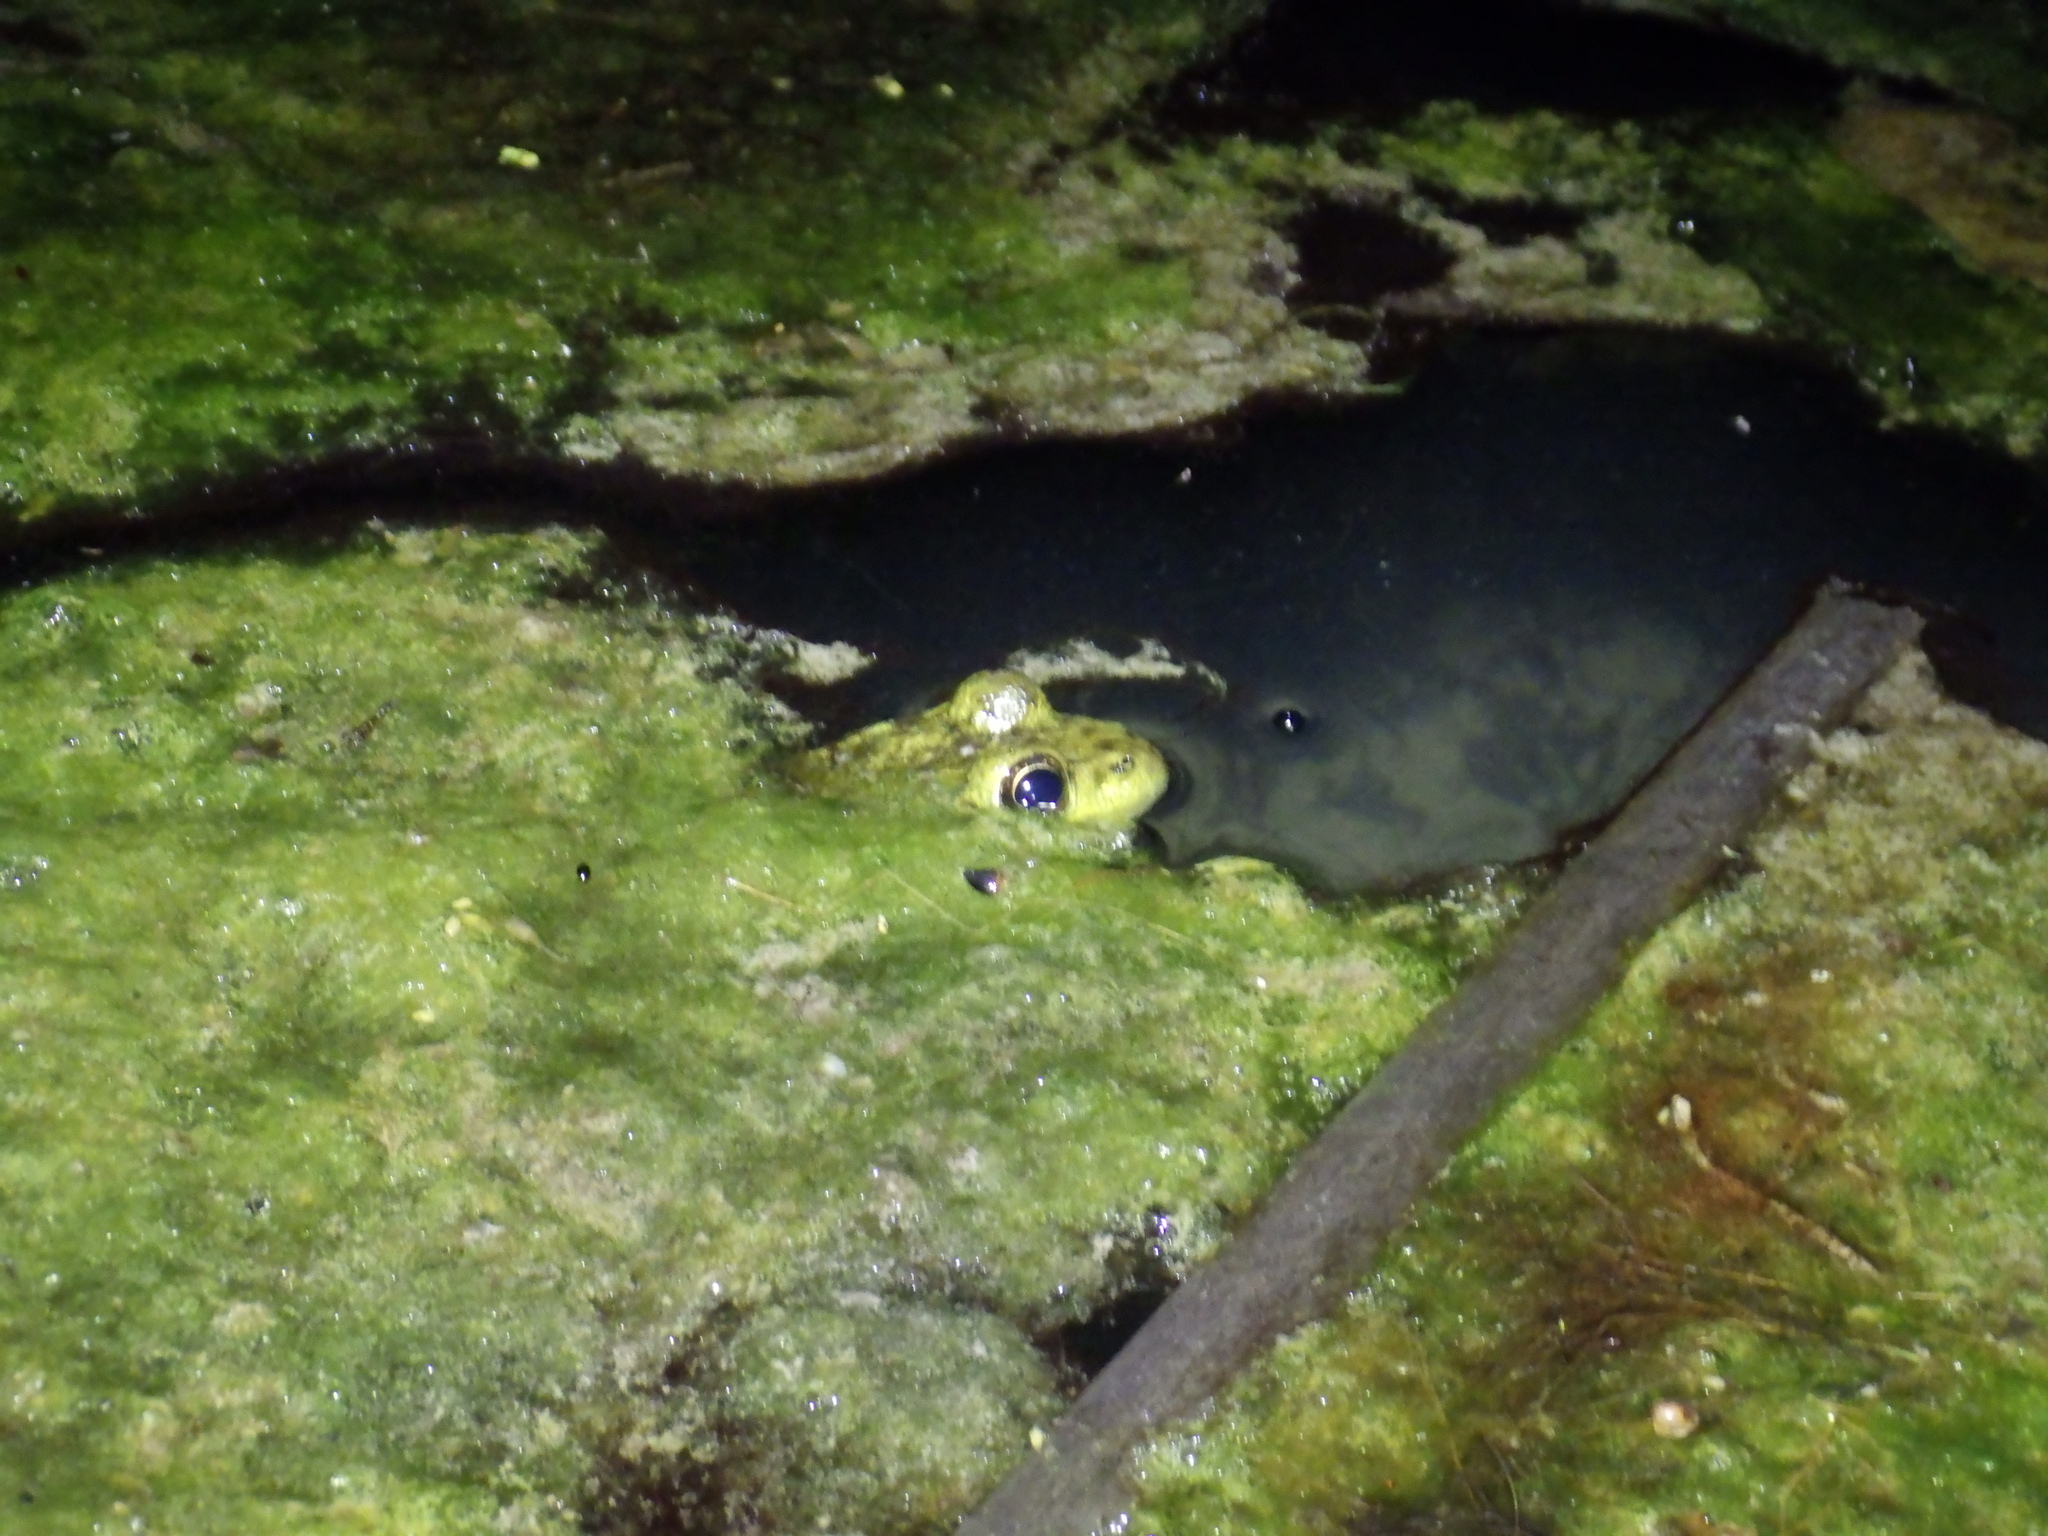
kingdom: Animalia
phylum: Chordata
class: Amphibia
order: Anura
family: Ranidae
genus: Lithobates
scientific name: Lithobates clamitans
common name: Green frog
